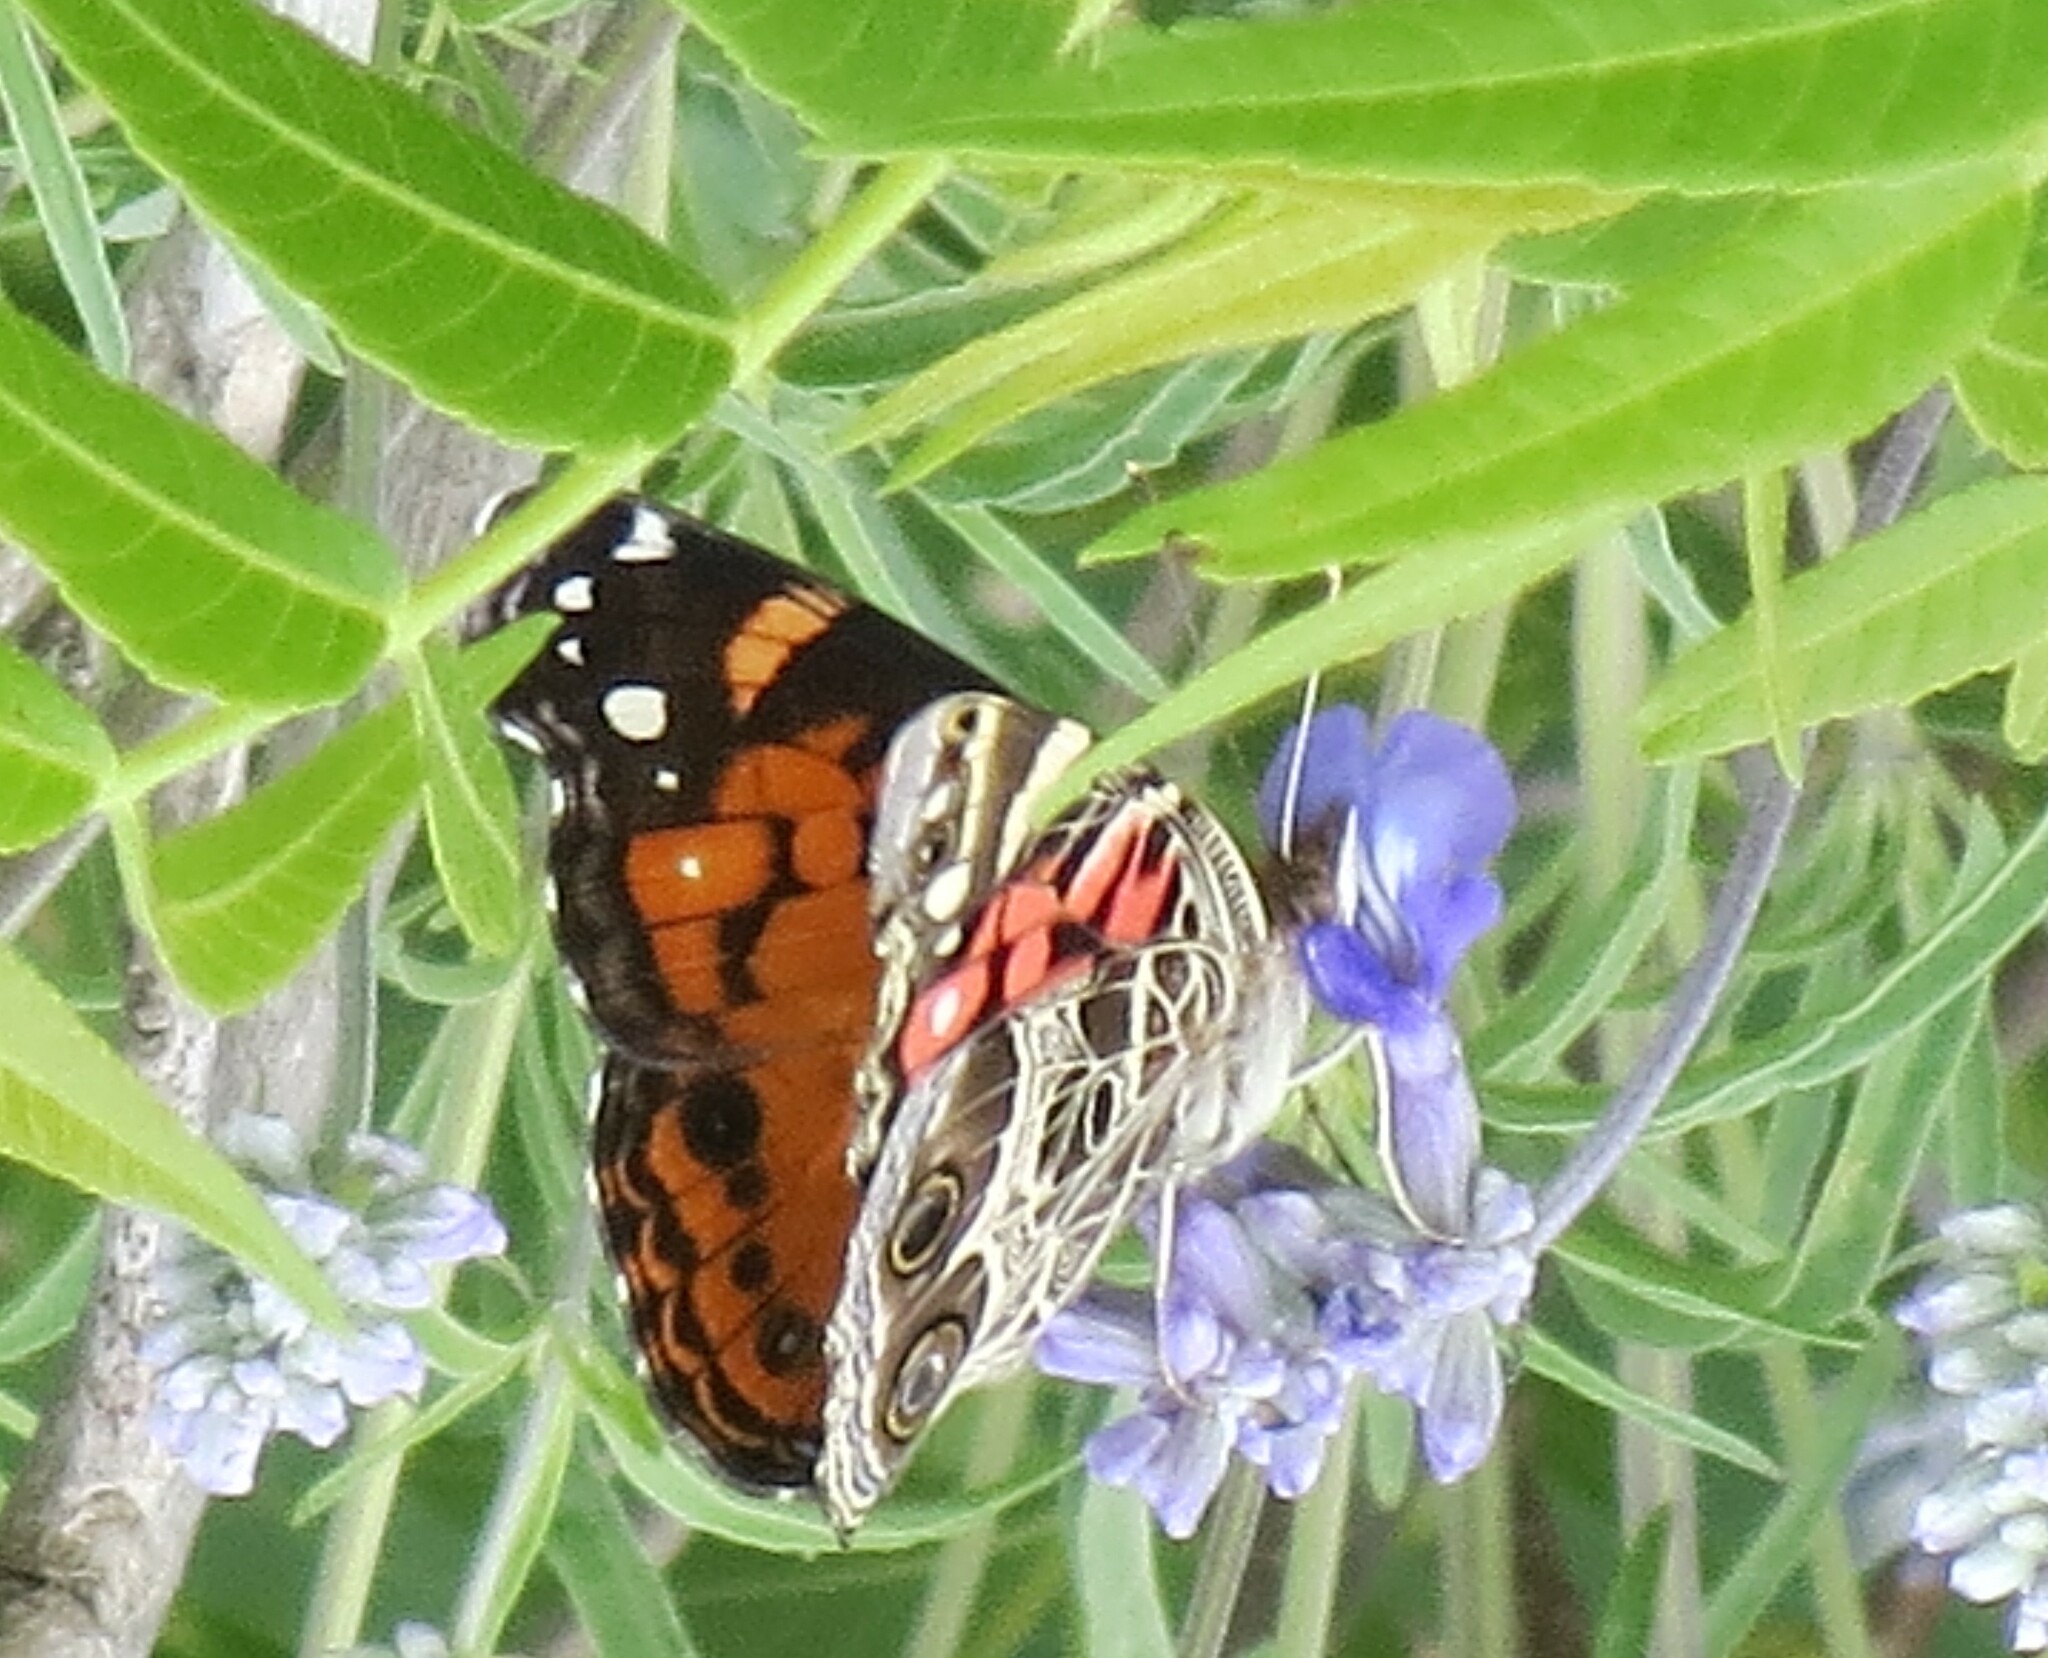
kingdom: Animalia
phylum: Arthropoda
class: Insecta
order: Lepidoptera
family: Nymphalidae
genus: Vanessa
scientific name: Vanessa virginiensis
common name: American lady
